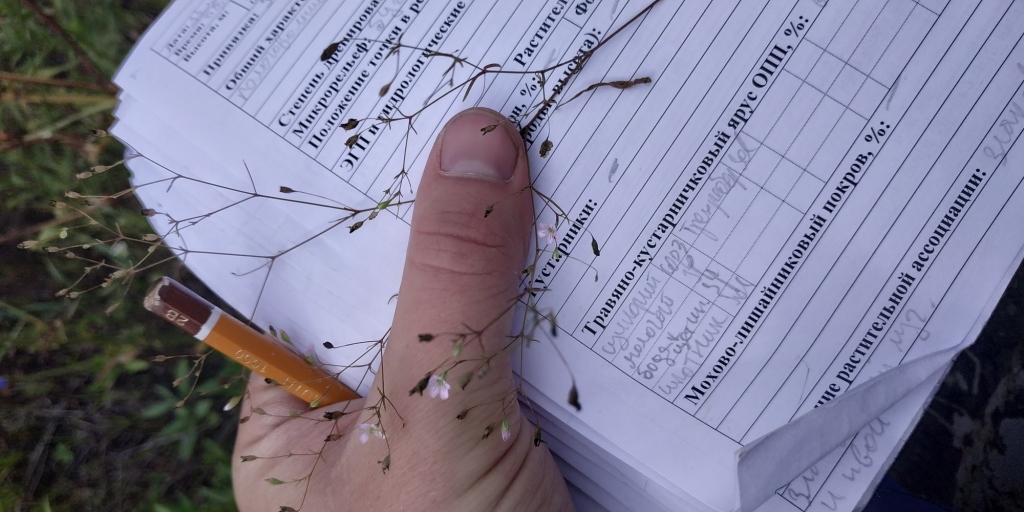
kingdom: Plantae
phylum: Tracheophyta
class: Magnoliopsida
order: Caryophyllales
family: Caryophyllaceae
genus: Psammophiliella
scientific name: Psammophiliella muralis
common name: Cushion baby's-breath
